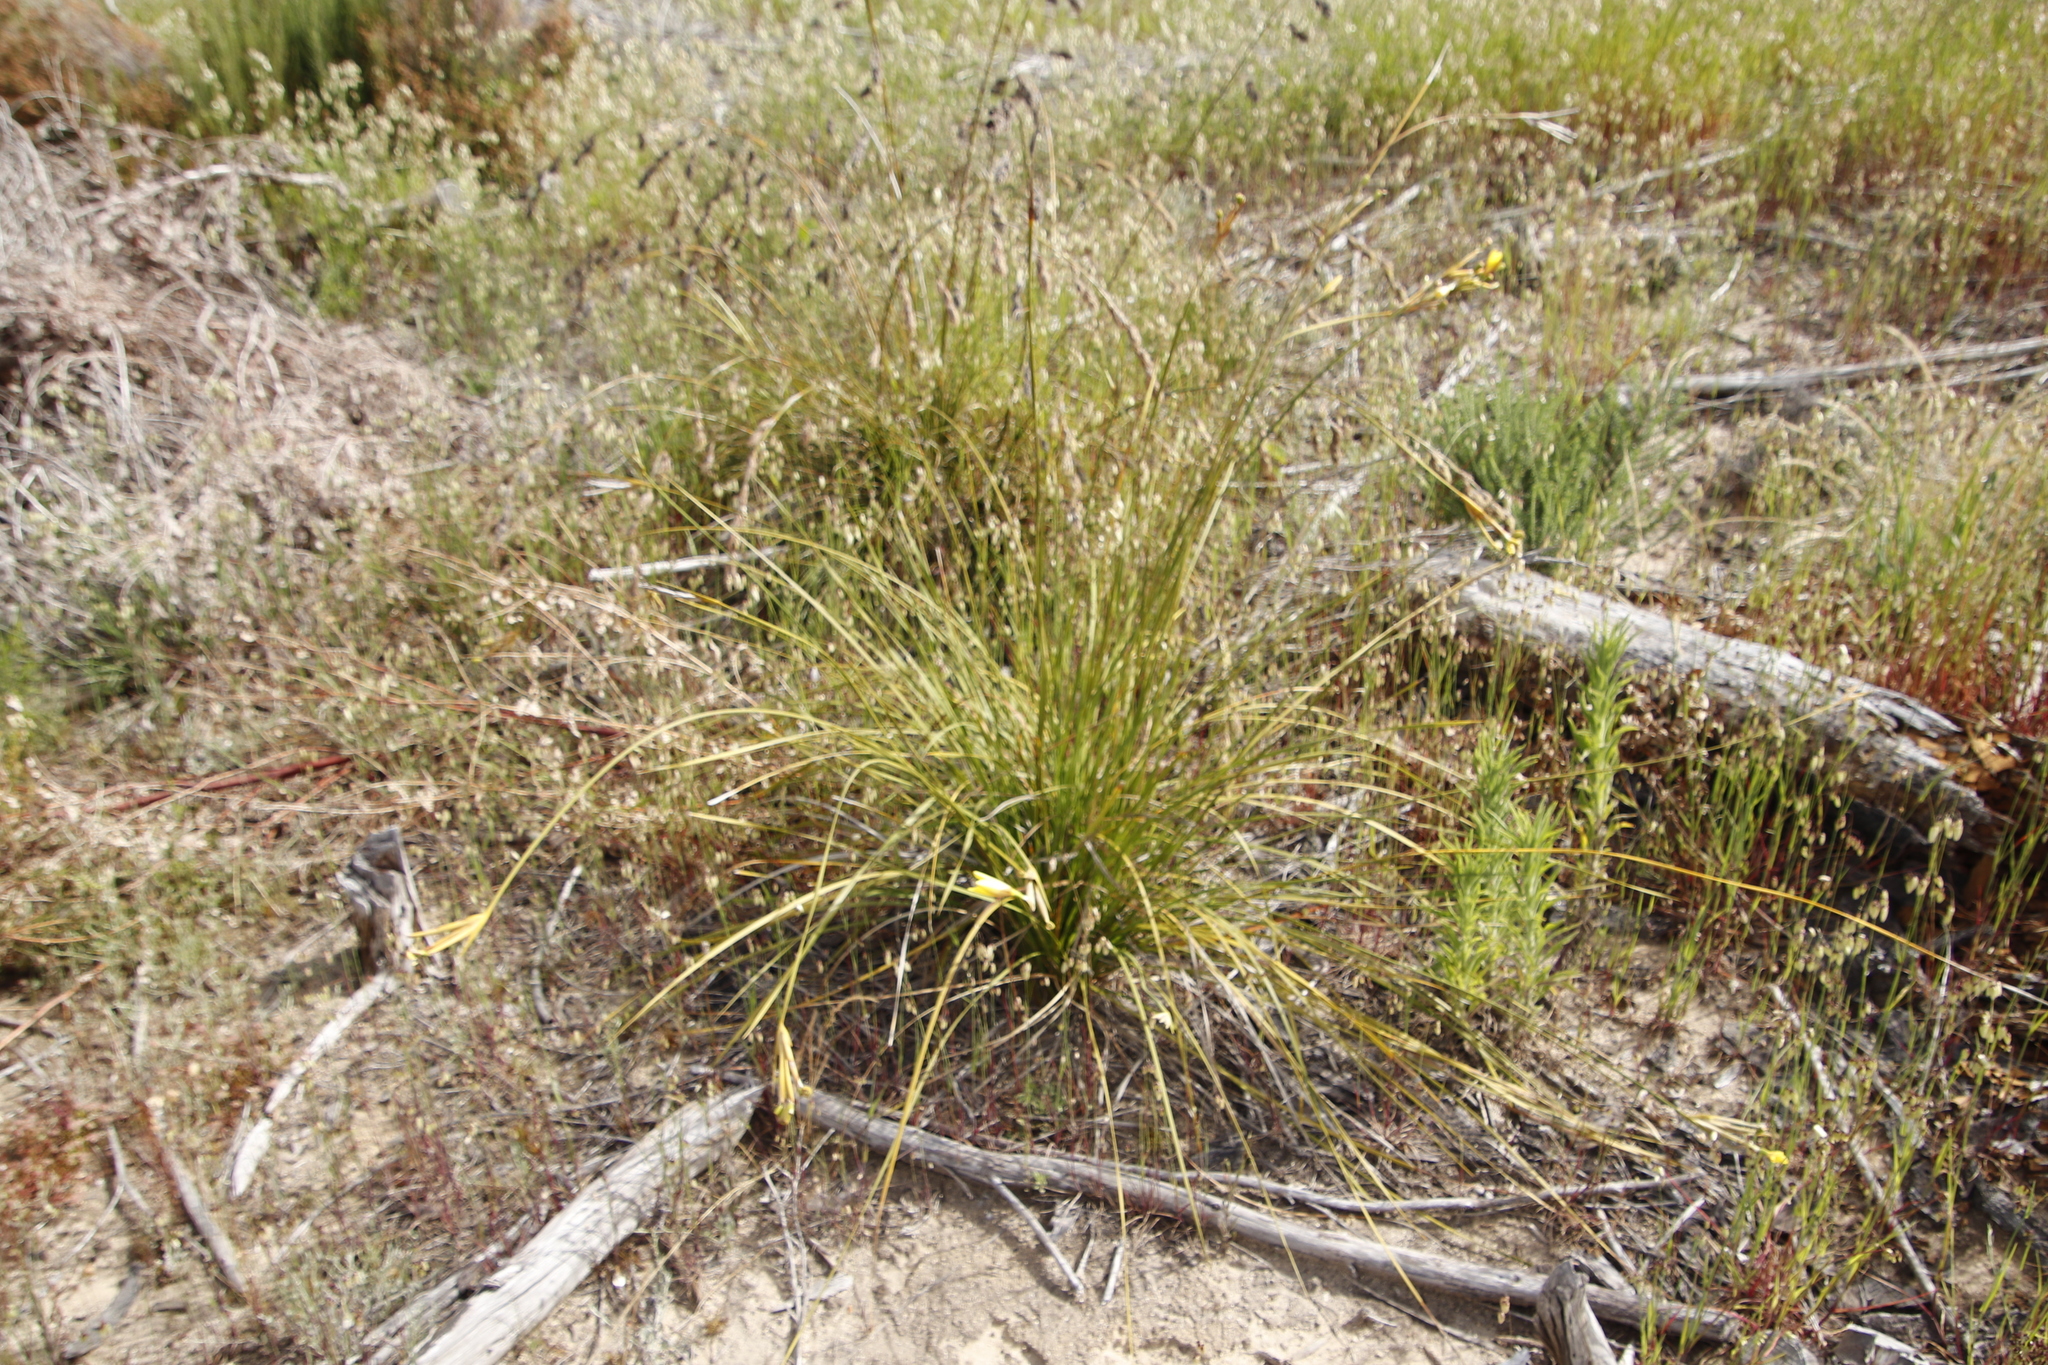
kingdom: Plantae
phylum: Tracheophyta
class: Liliopsida
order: Asparagales
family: Iridaceae
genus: Bobartia
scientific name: Bobartia gladiata
